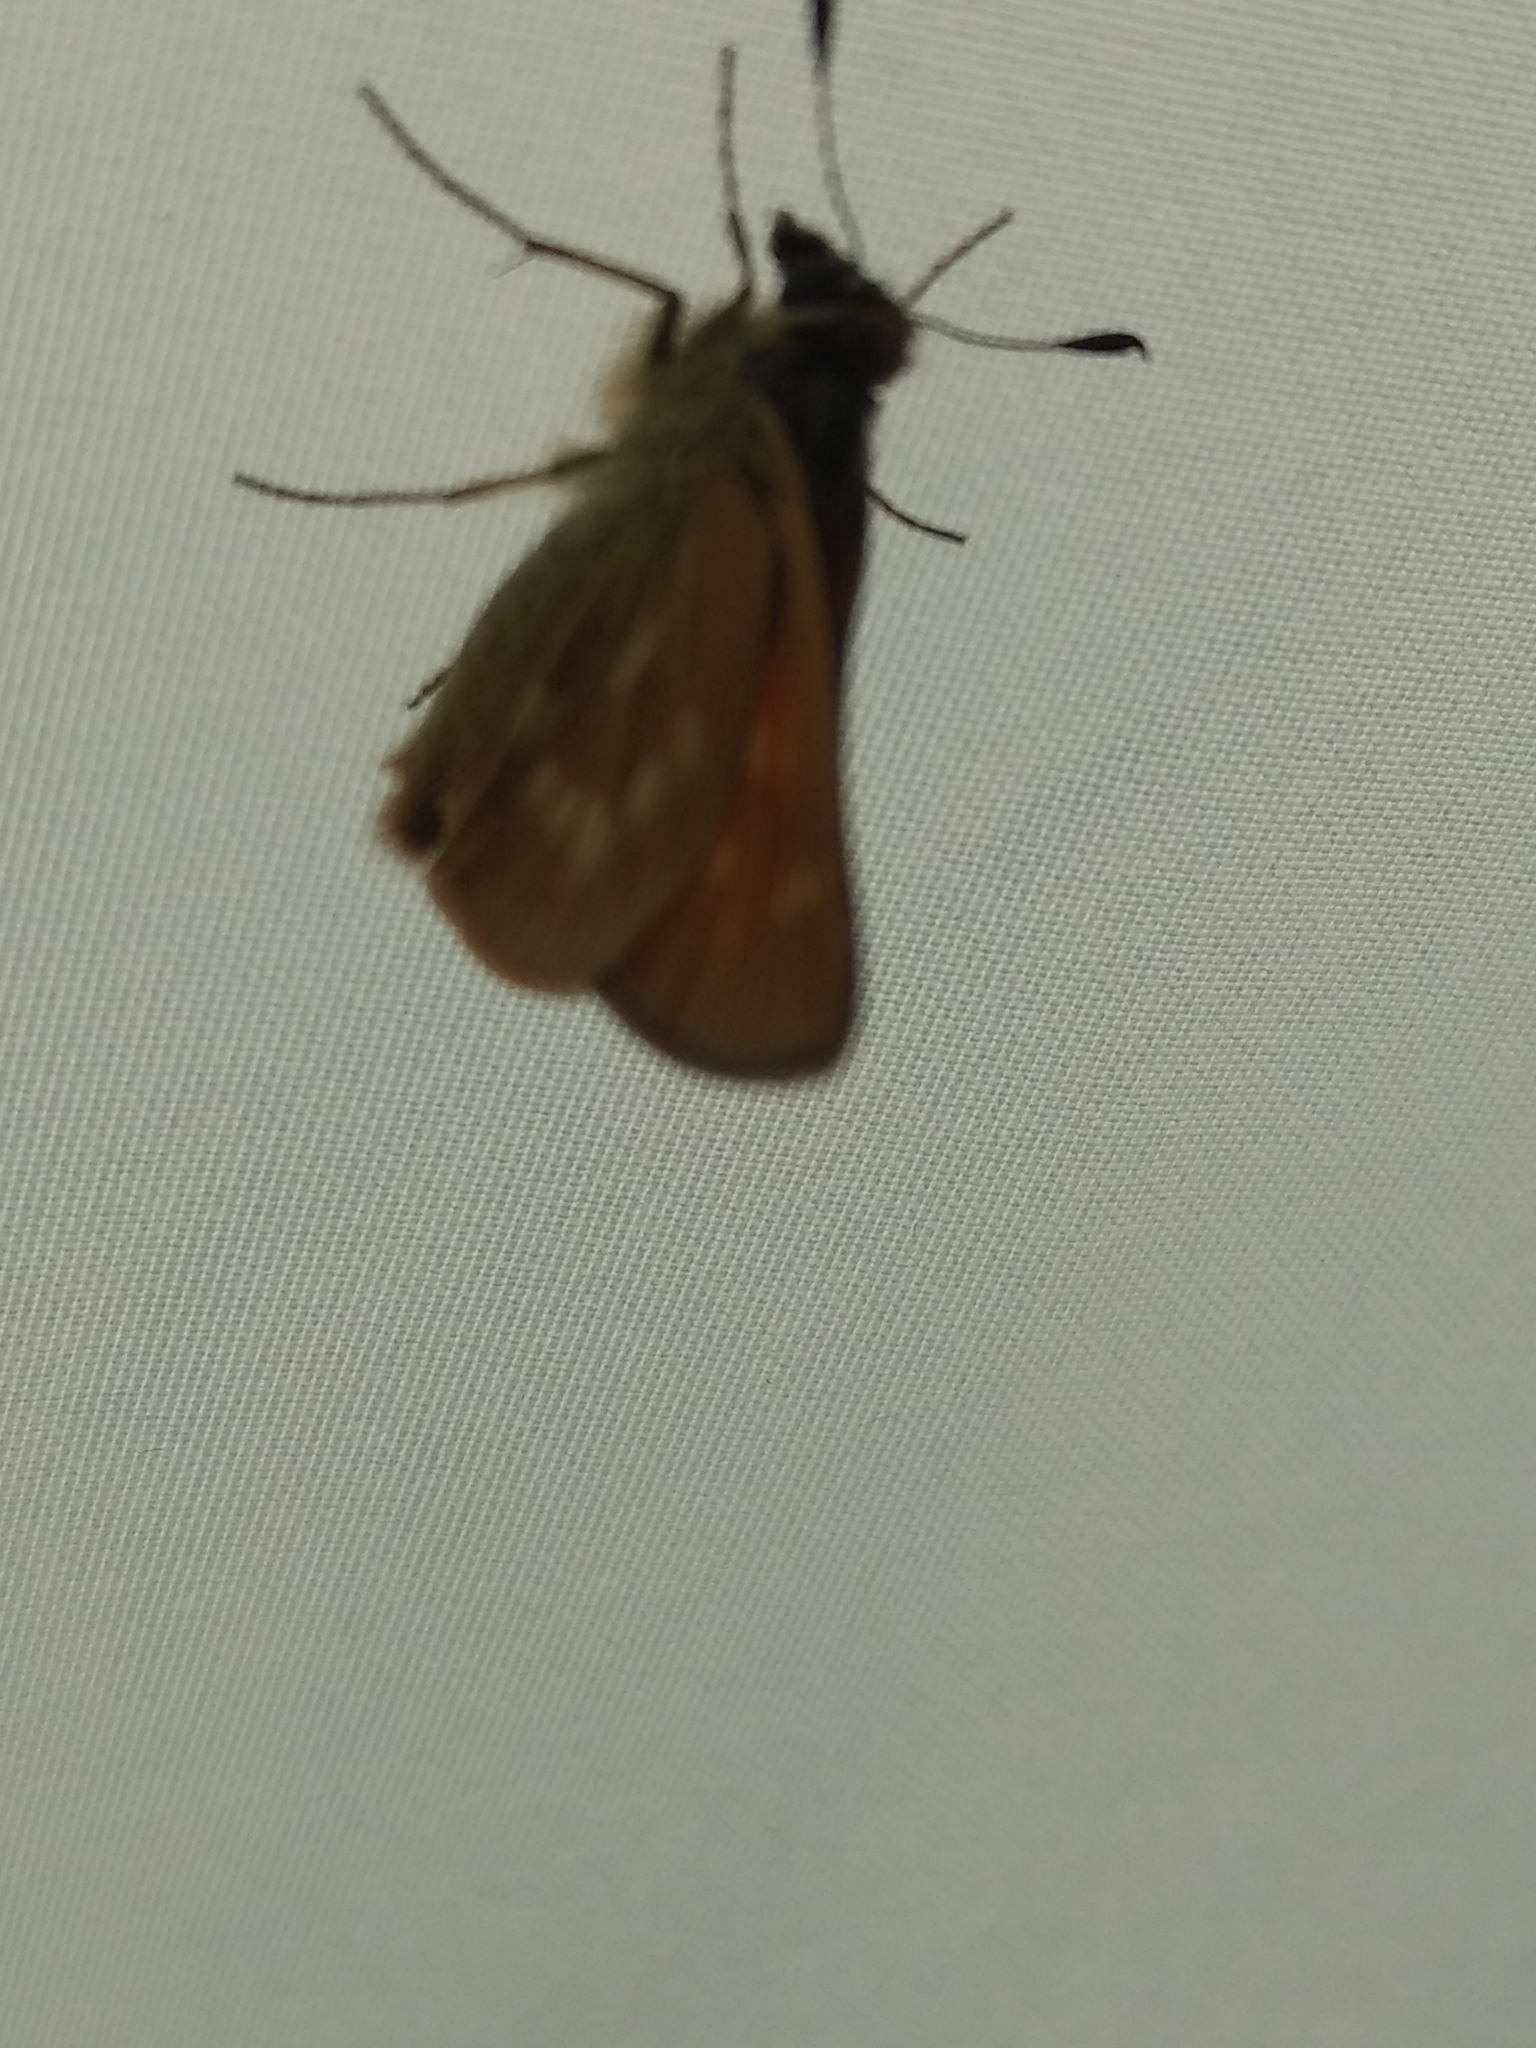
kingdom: Animalia
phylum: Arthropoda
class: Insecta
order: Lepidoptera
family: Hesperiidae
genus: Polites
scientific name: Polites mystic
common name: Long dash
